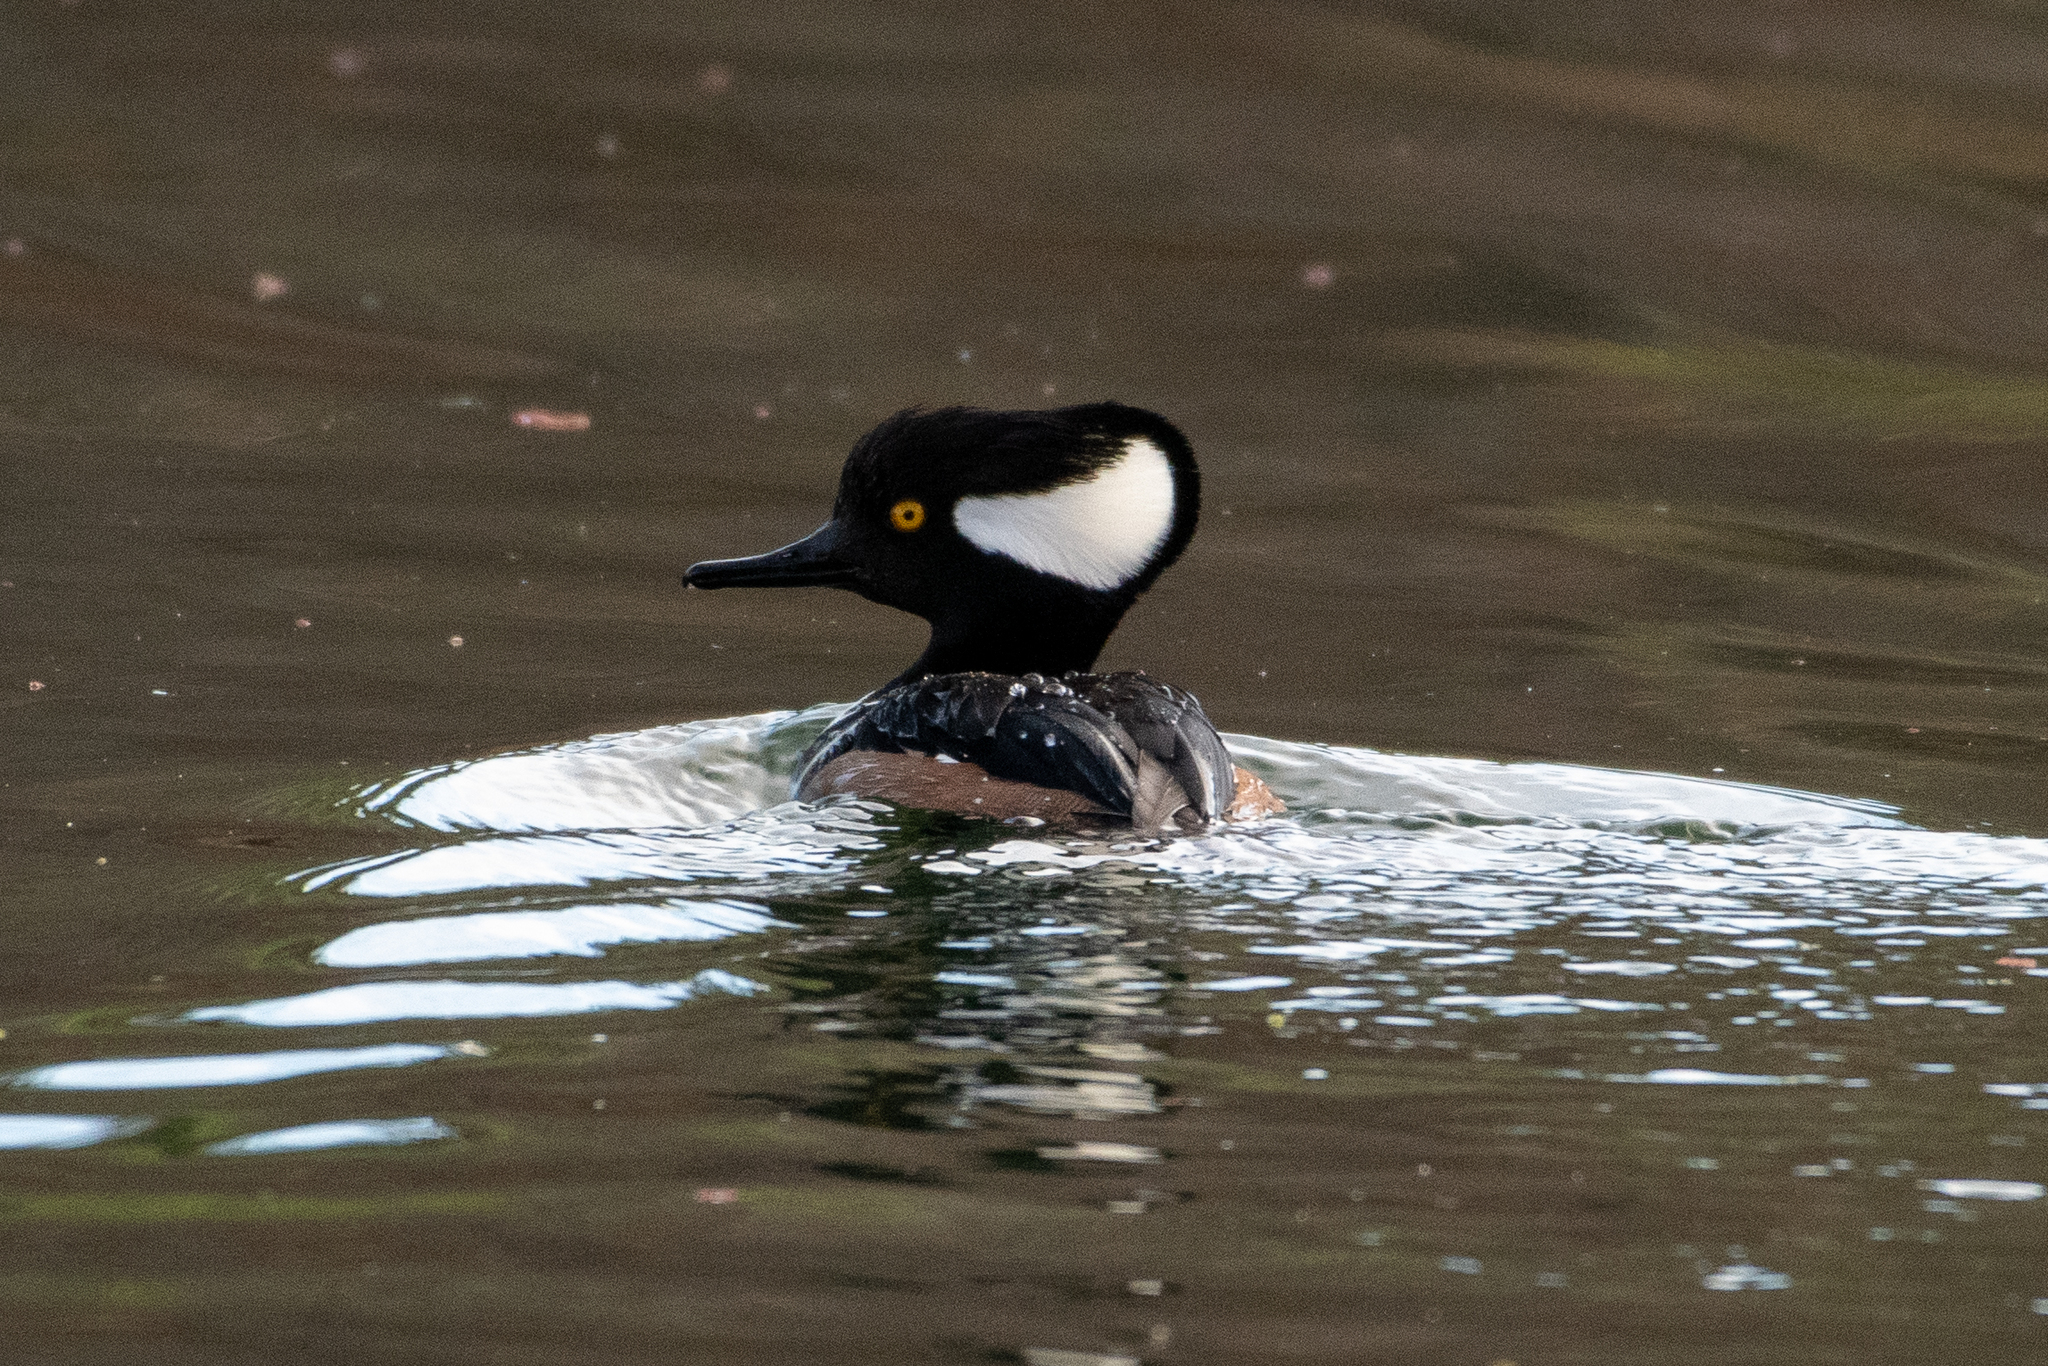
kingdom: Animalia
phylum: Chordata
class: Aves
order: Anseriformes
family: Anatidae
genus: Lophodytes
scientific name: Lophodytes cucullatus
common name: Hooded merganser
